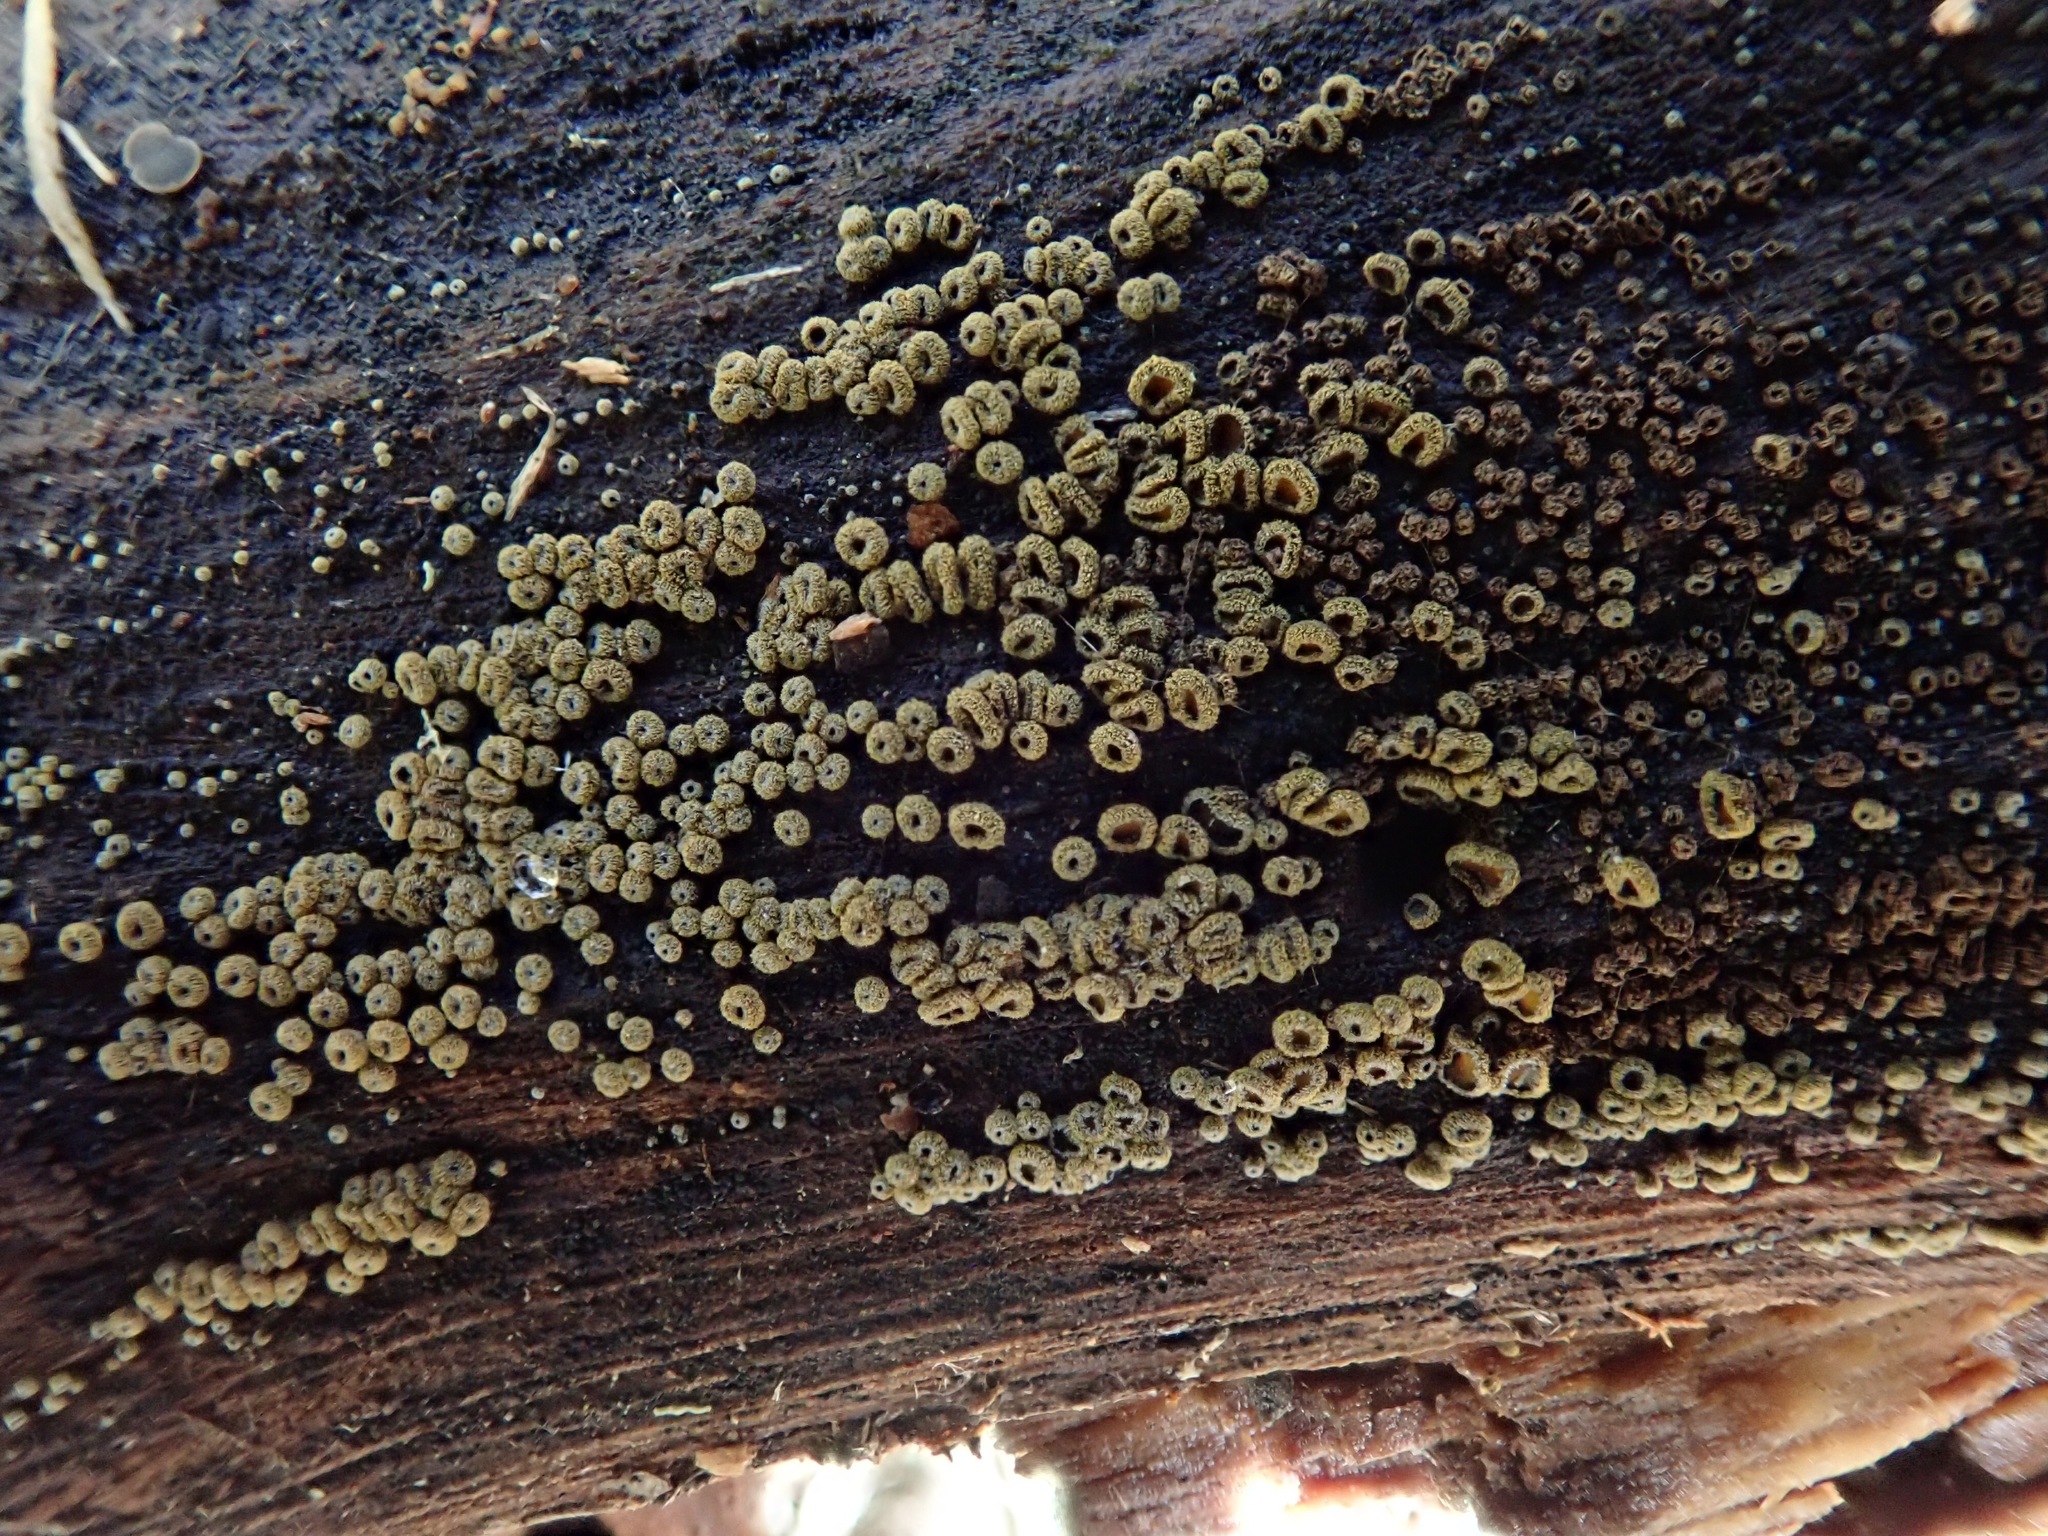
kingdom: Fungi
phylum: Ascomycota
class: Leotiomycetes
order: Helotiales
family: Lachnaceae
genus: Neodasyscypha
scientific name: Neodasyscypha cerina
